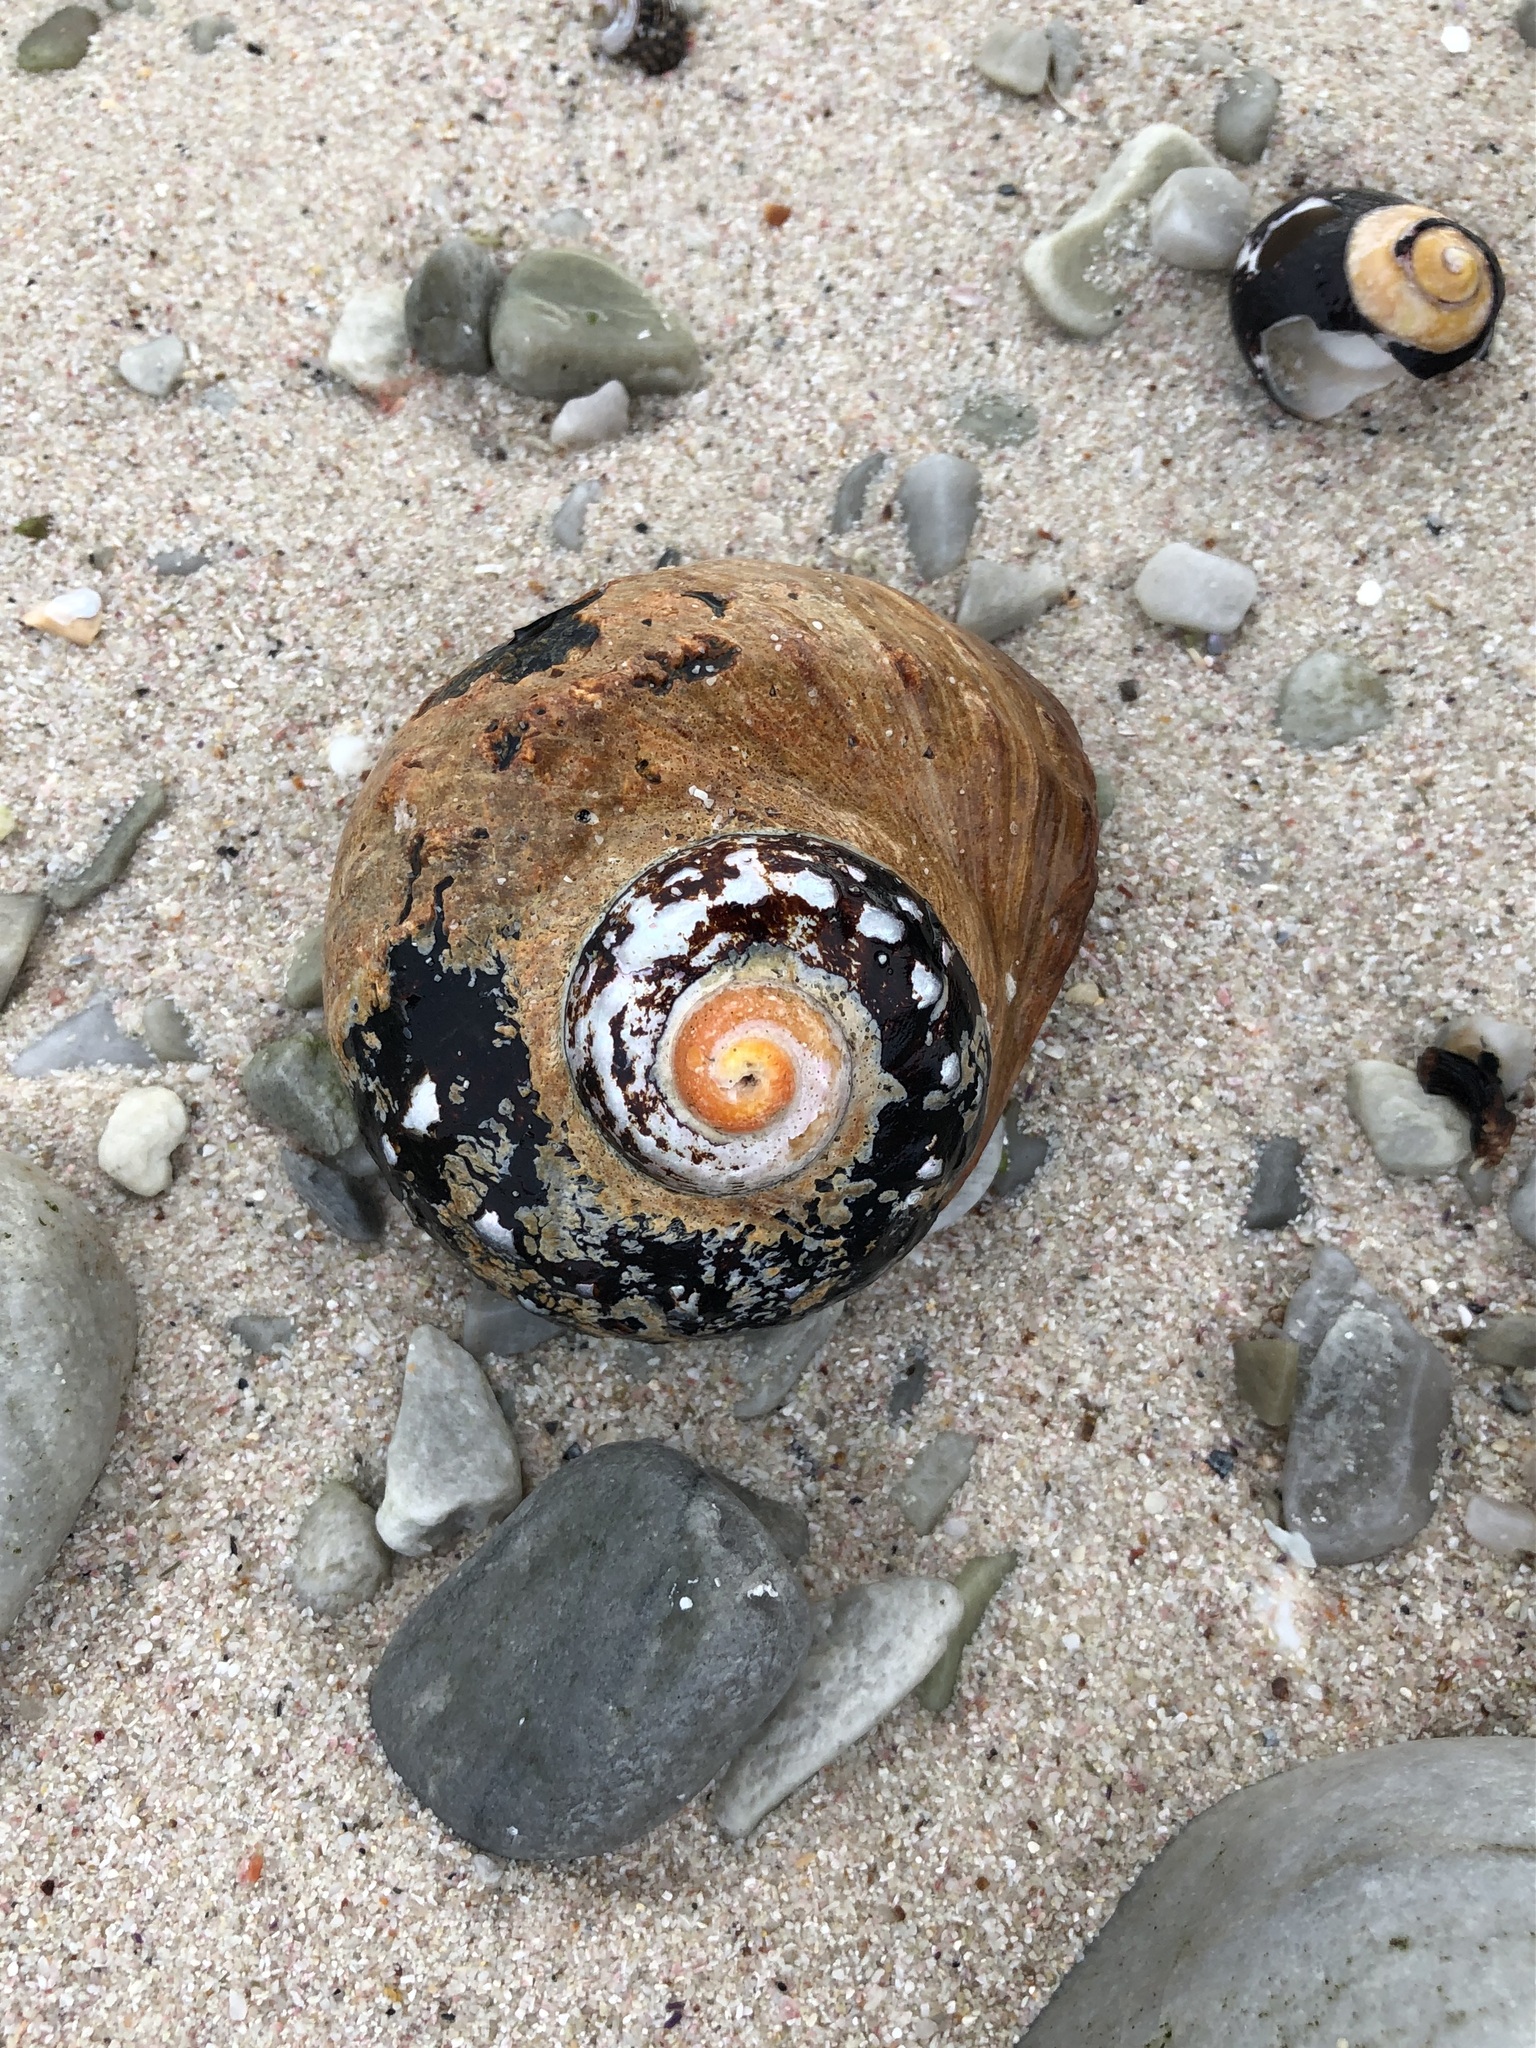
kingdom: Animalia
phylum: Mollusca
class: Gastropoda
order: Trochida
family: Turbinidae
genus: Turbo
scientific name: Turbo sarmaticus
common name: South african turban
